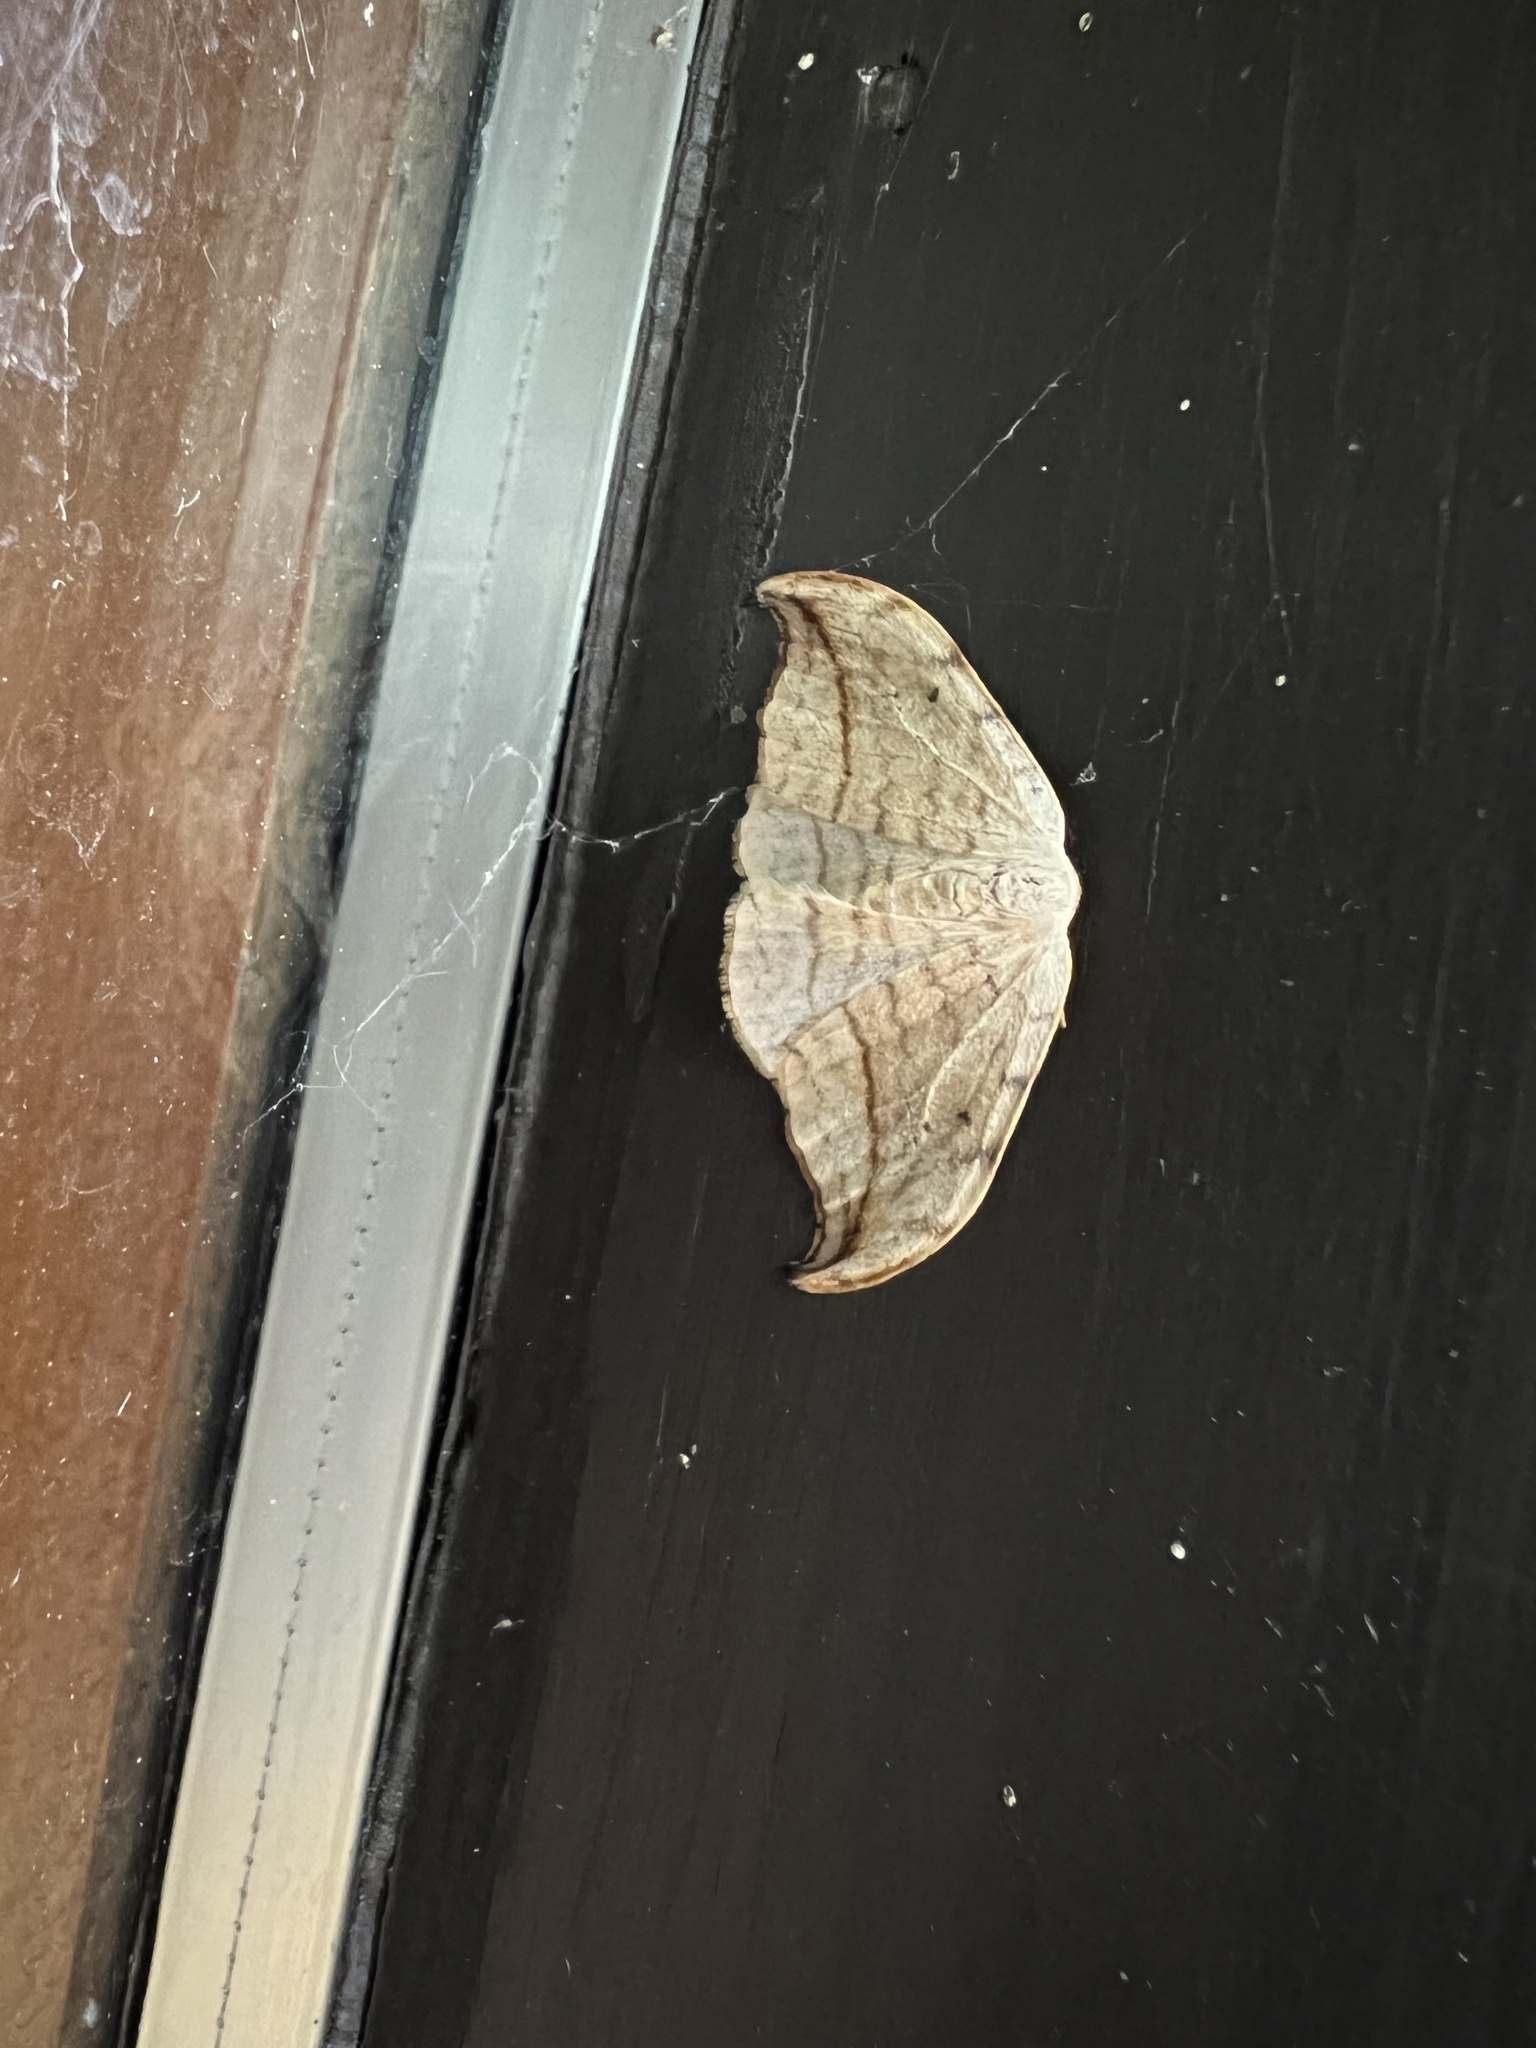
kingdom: Animalia
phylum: Arthropoda
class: Insecta
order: Lepidoptera
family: Drepanidae
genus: Drepana
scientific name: Drepana arcuata
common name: Arched hooktip moth
